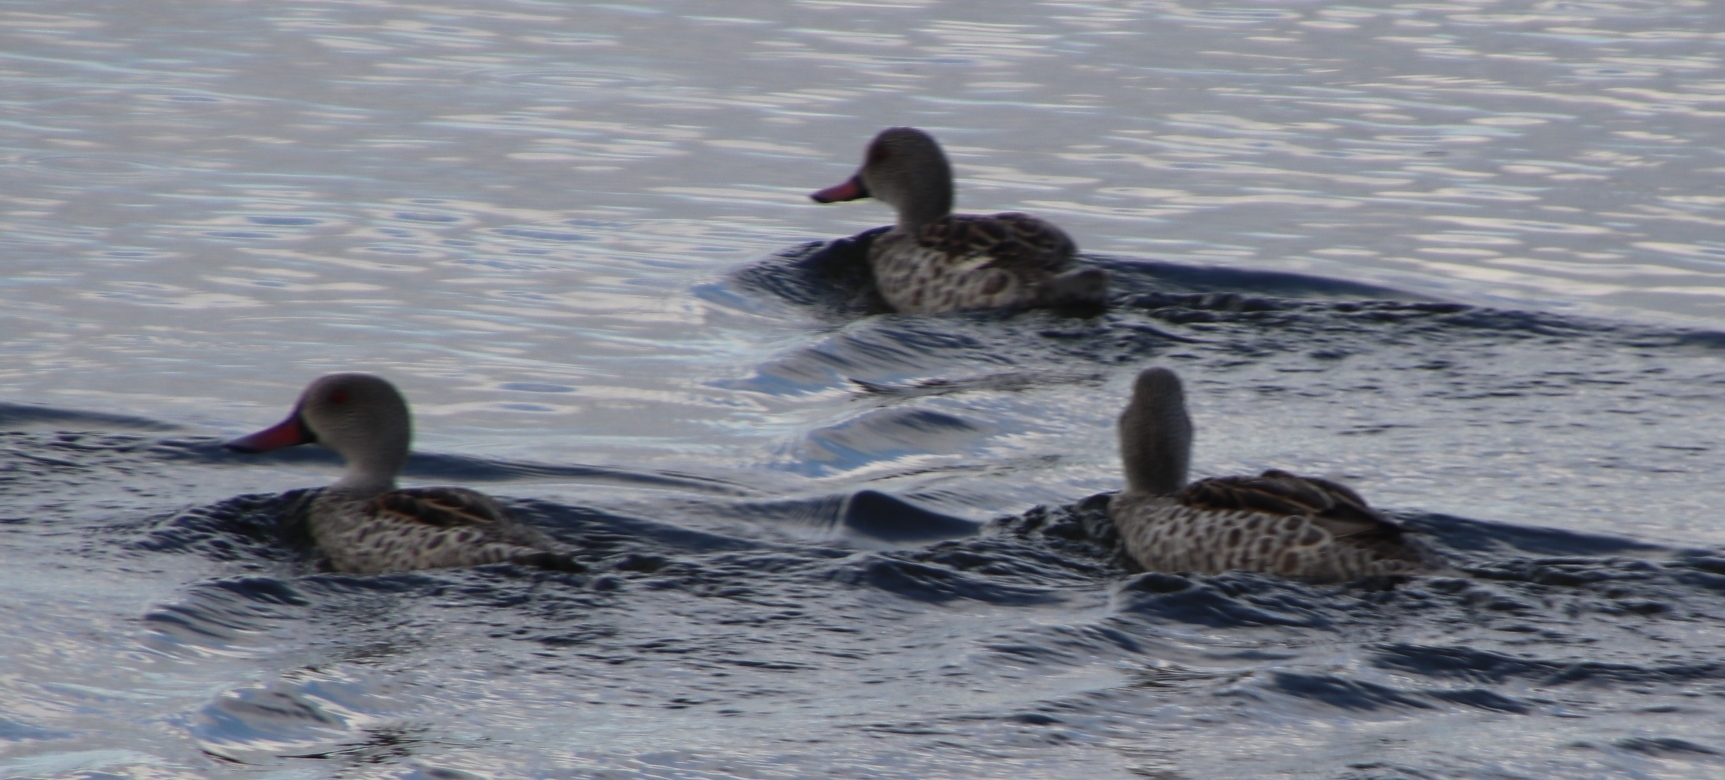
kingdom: Animalia
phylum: Chordata
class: Aves
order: Anseriformes
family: Anatidae
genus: Anas
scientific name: Anas capensis
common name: Cape teal
